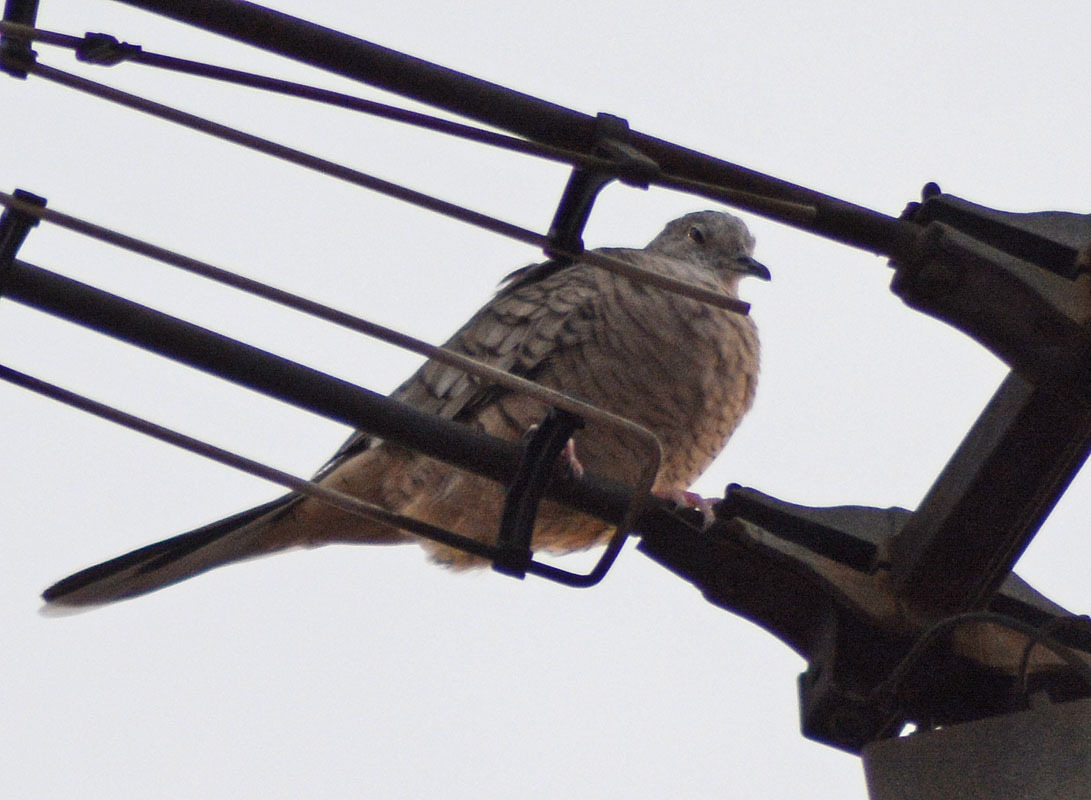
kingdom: Animalia
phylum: Chordata
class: Aves
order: Columbiformes
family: Columbidae
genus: Columbina
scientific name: Columbina inca
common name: Inca dove
